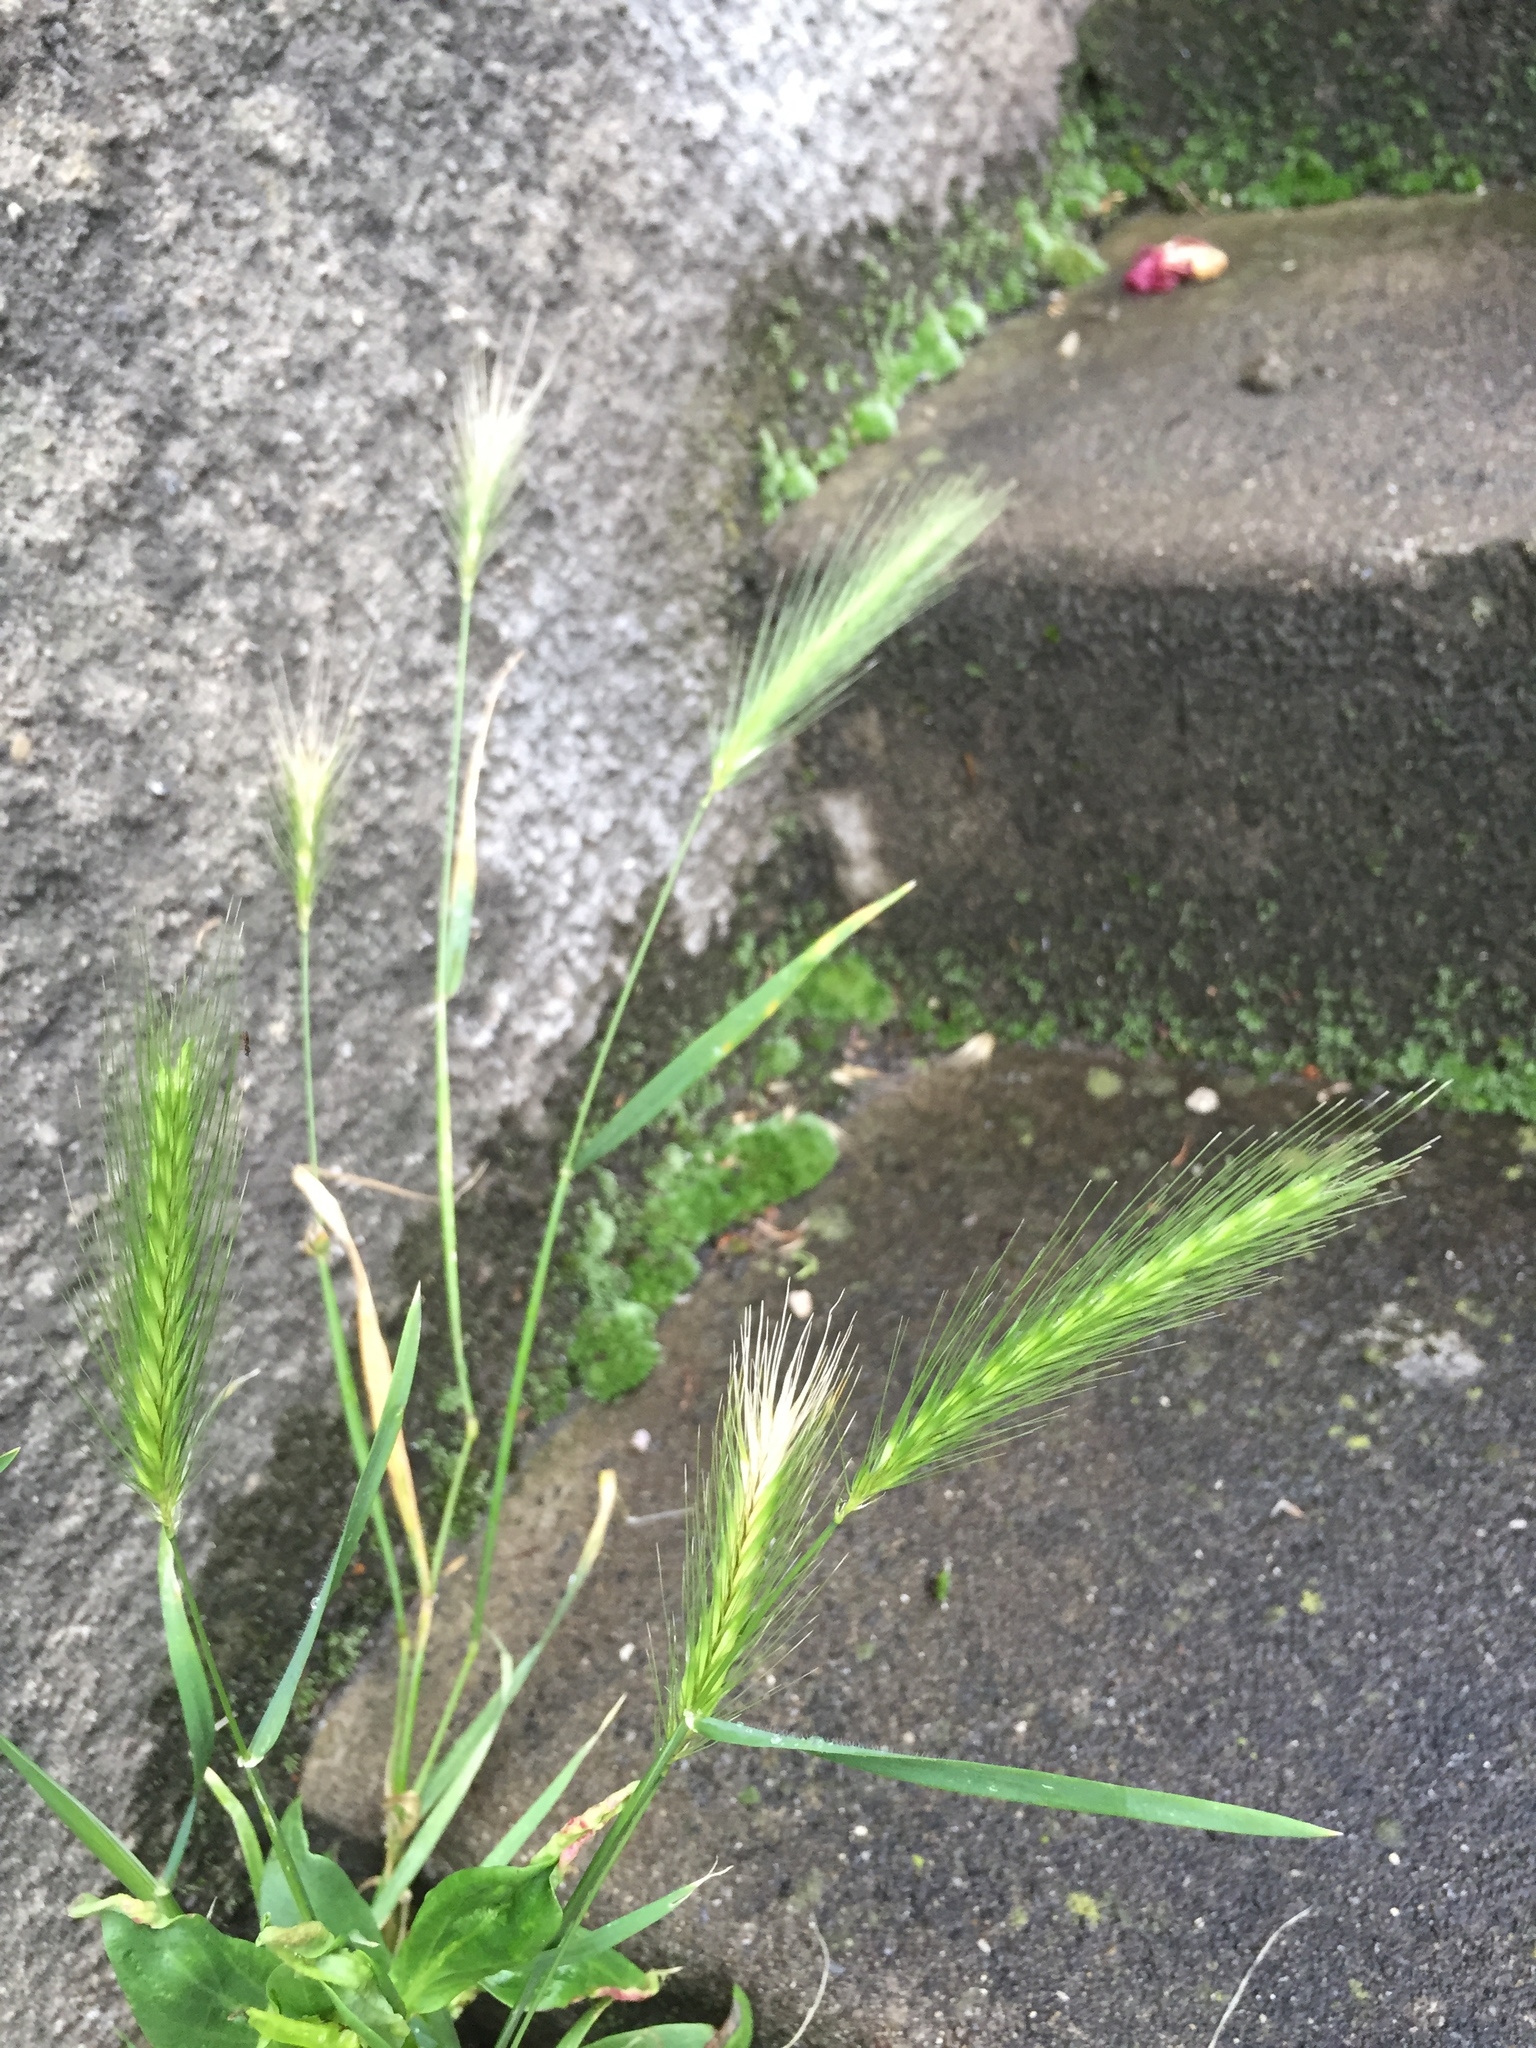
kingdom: Plantae
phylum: Tracheophyta
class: Liliopsida
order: Poales
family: Poaceae
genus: Hordeum
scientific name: Hordeum murinum
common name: Wall barley
